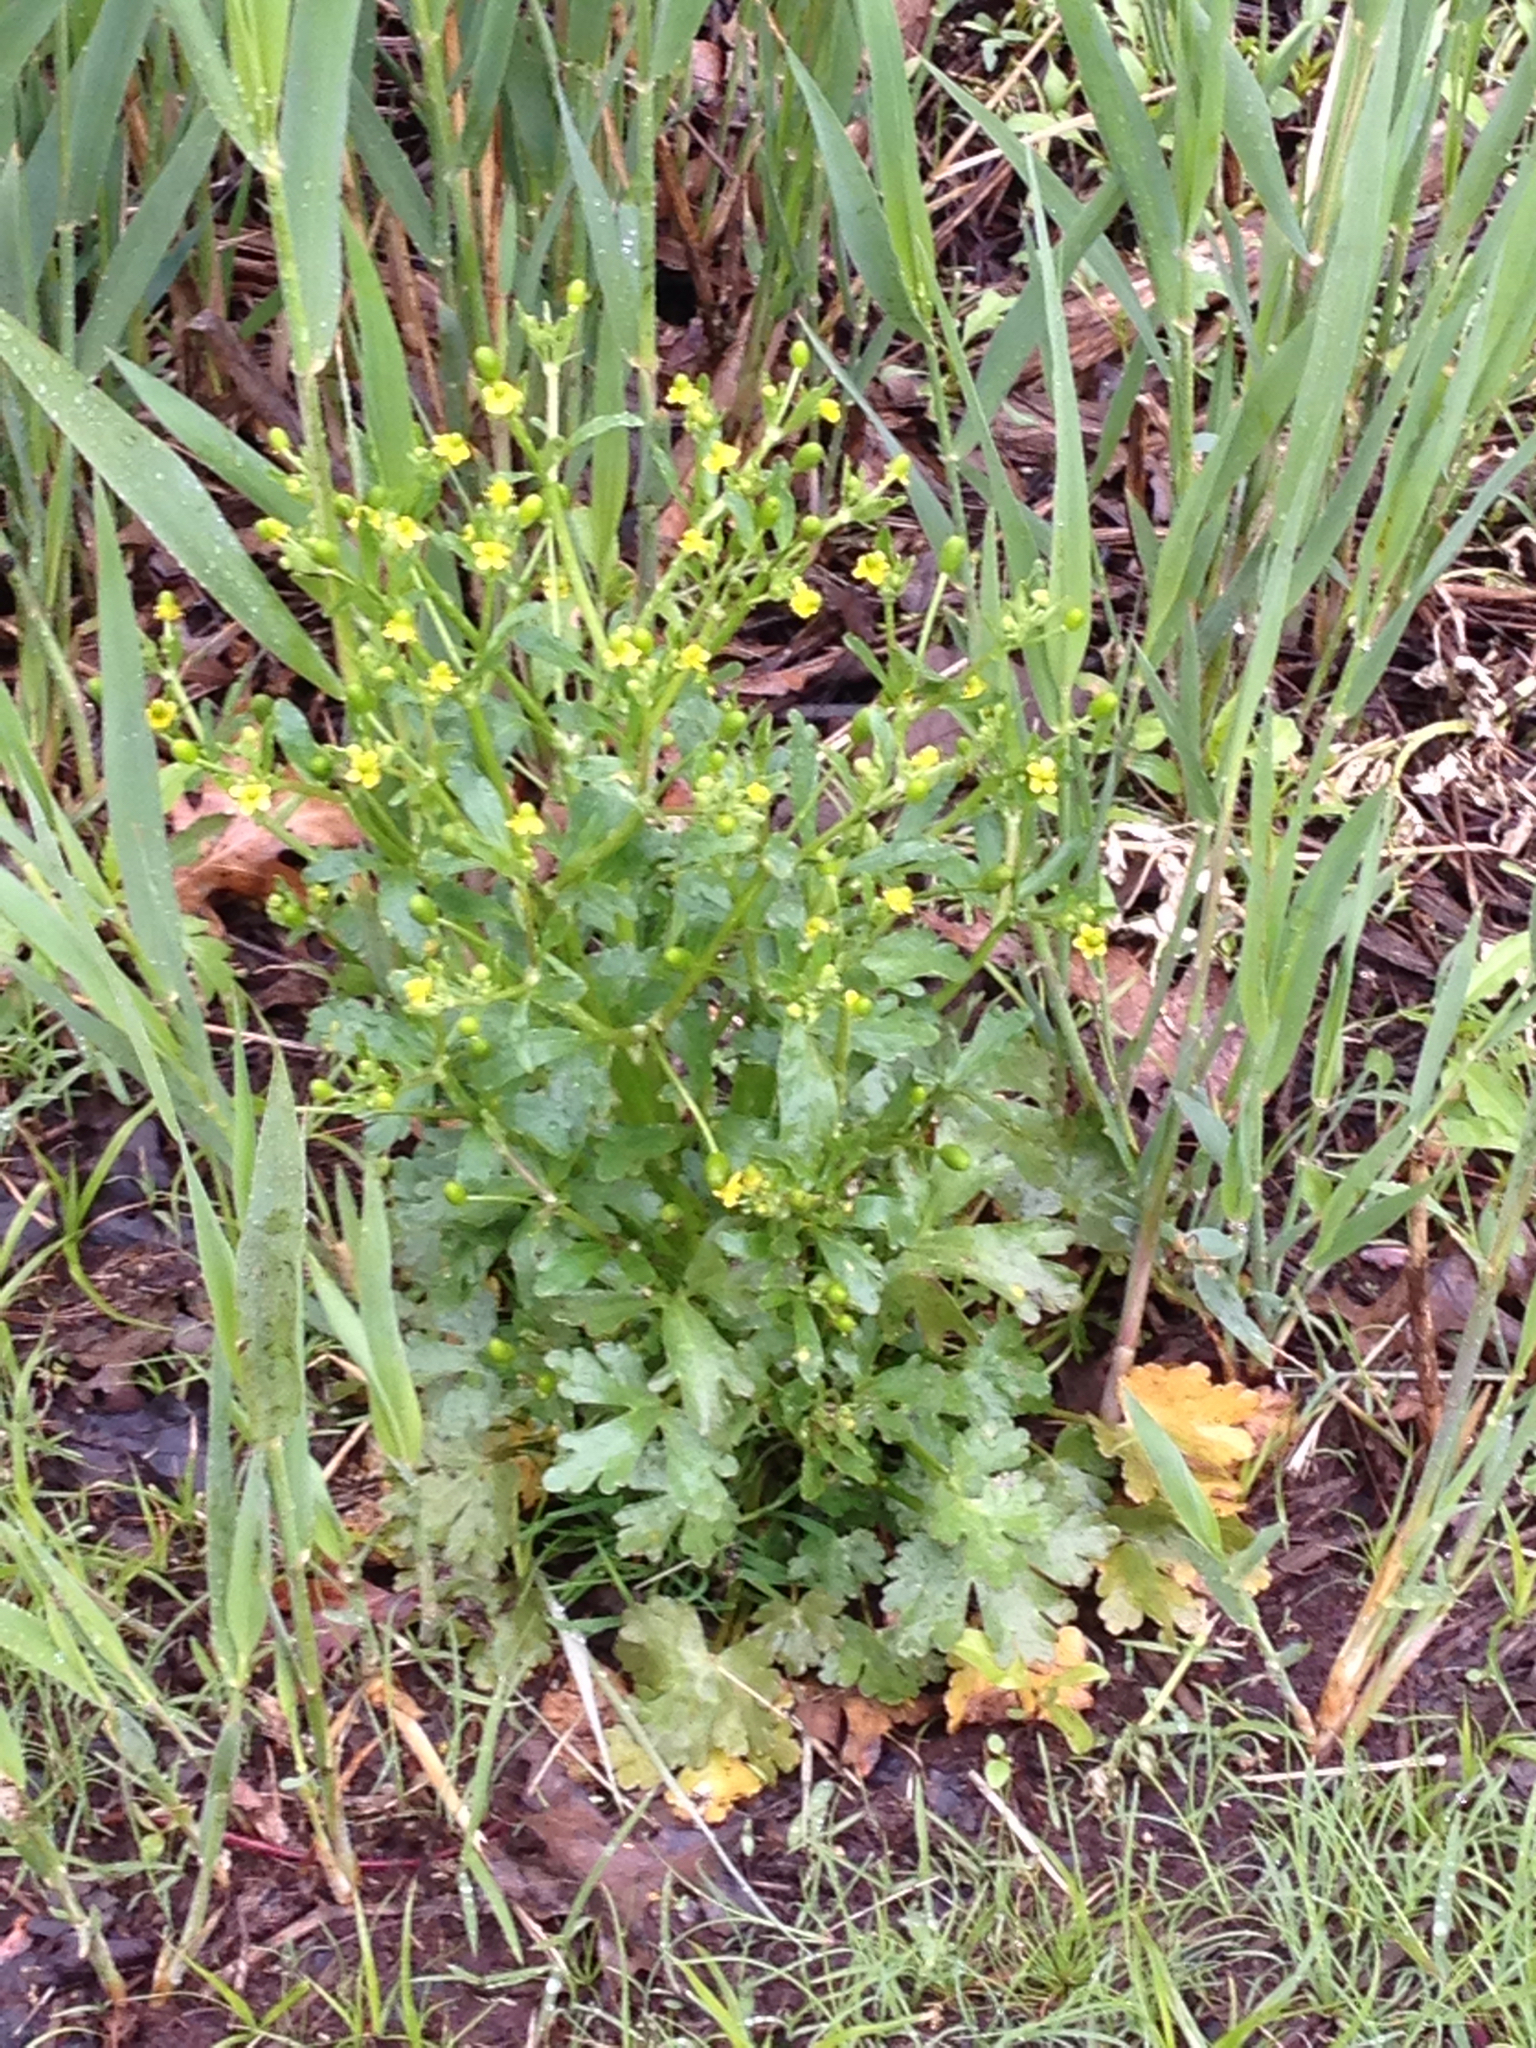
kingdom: Plantae
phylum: Tracheophyta
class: Magnoliopsida
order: Ranunculales
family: Ranunculaceae
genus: Ranunculus
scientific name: Ranunculus sceleratus
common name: Celery-leaved buttercup
